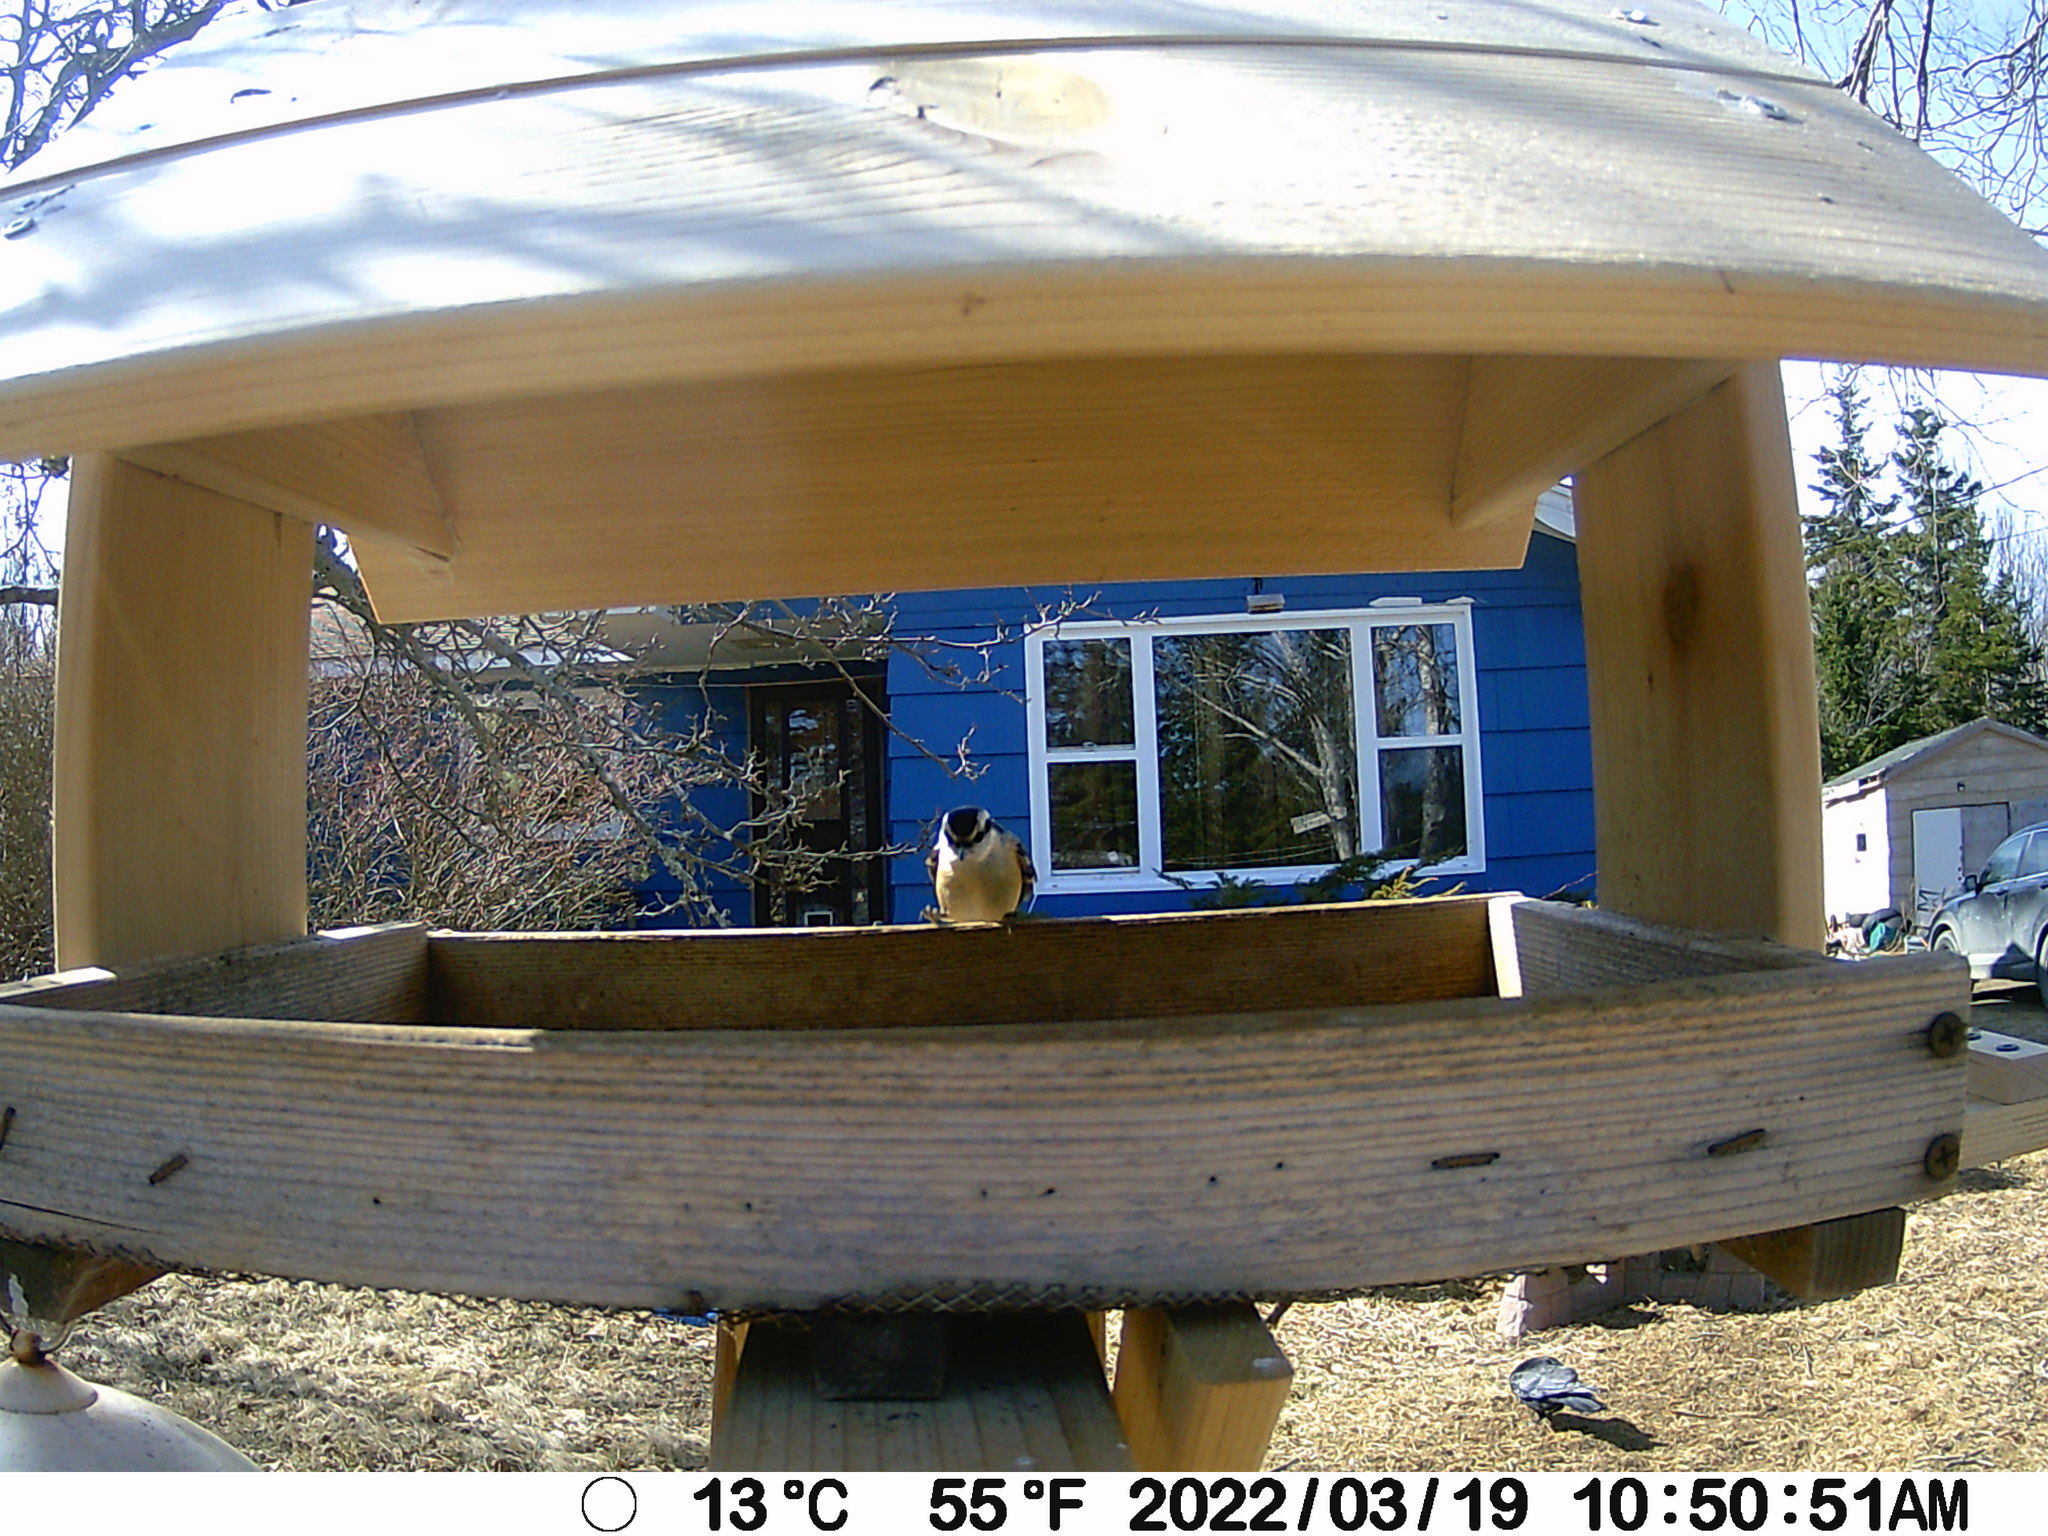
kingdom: Animalia
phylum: Chordata
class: Aves
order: Passeriformes
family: Sittidae
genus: Sitta
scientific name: Sitta canadensis
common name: Red-breasted nuthatch
